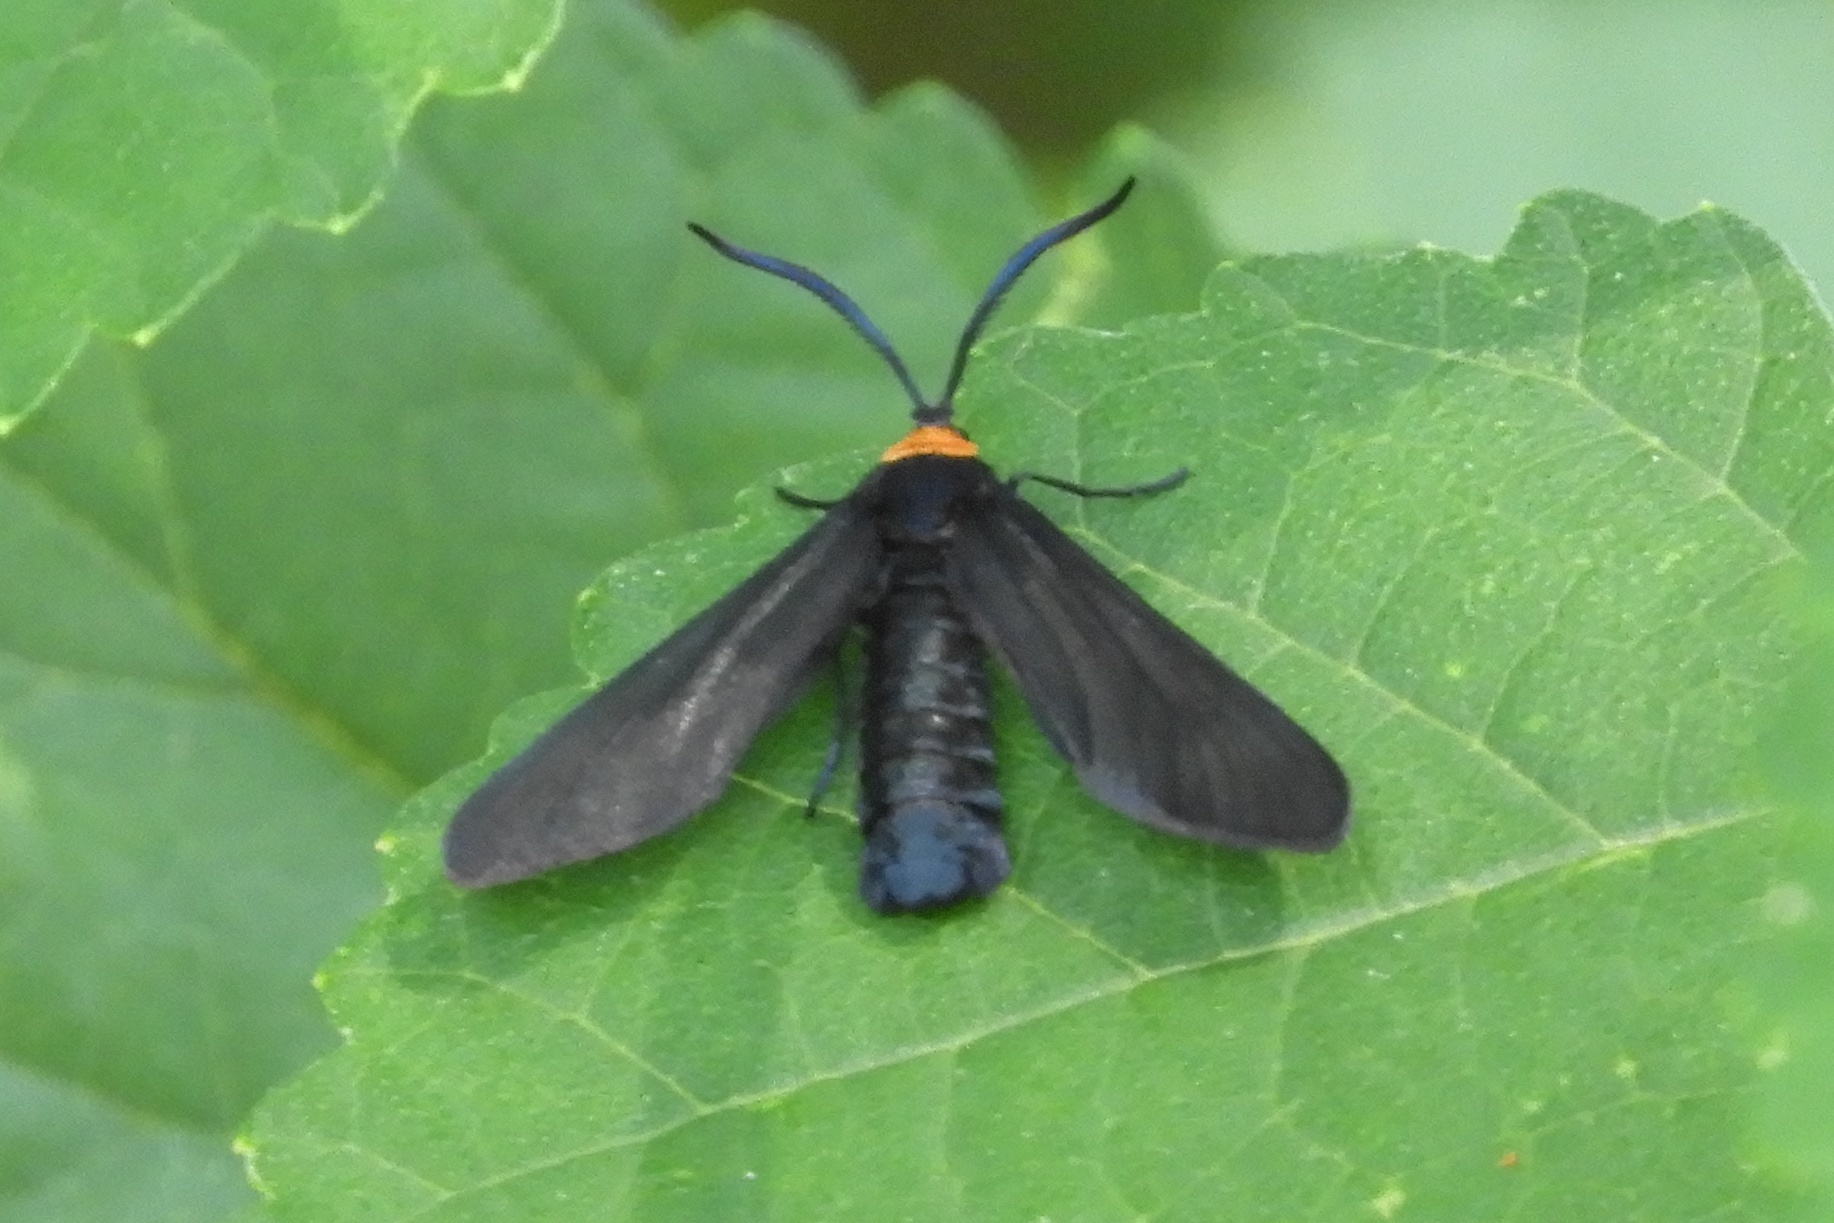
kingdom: Animalia
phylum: Arthropoda
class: Insecta
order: Lepidoptera
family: Zygaenidae
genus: Harrisina
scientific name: Harrisina americana
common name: Grapeleaf skeletonizer moth
